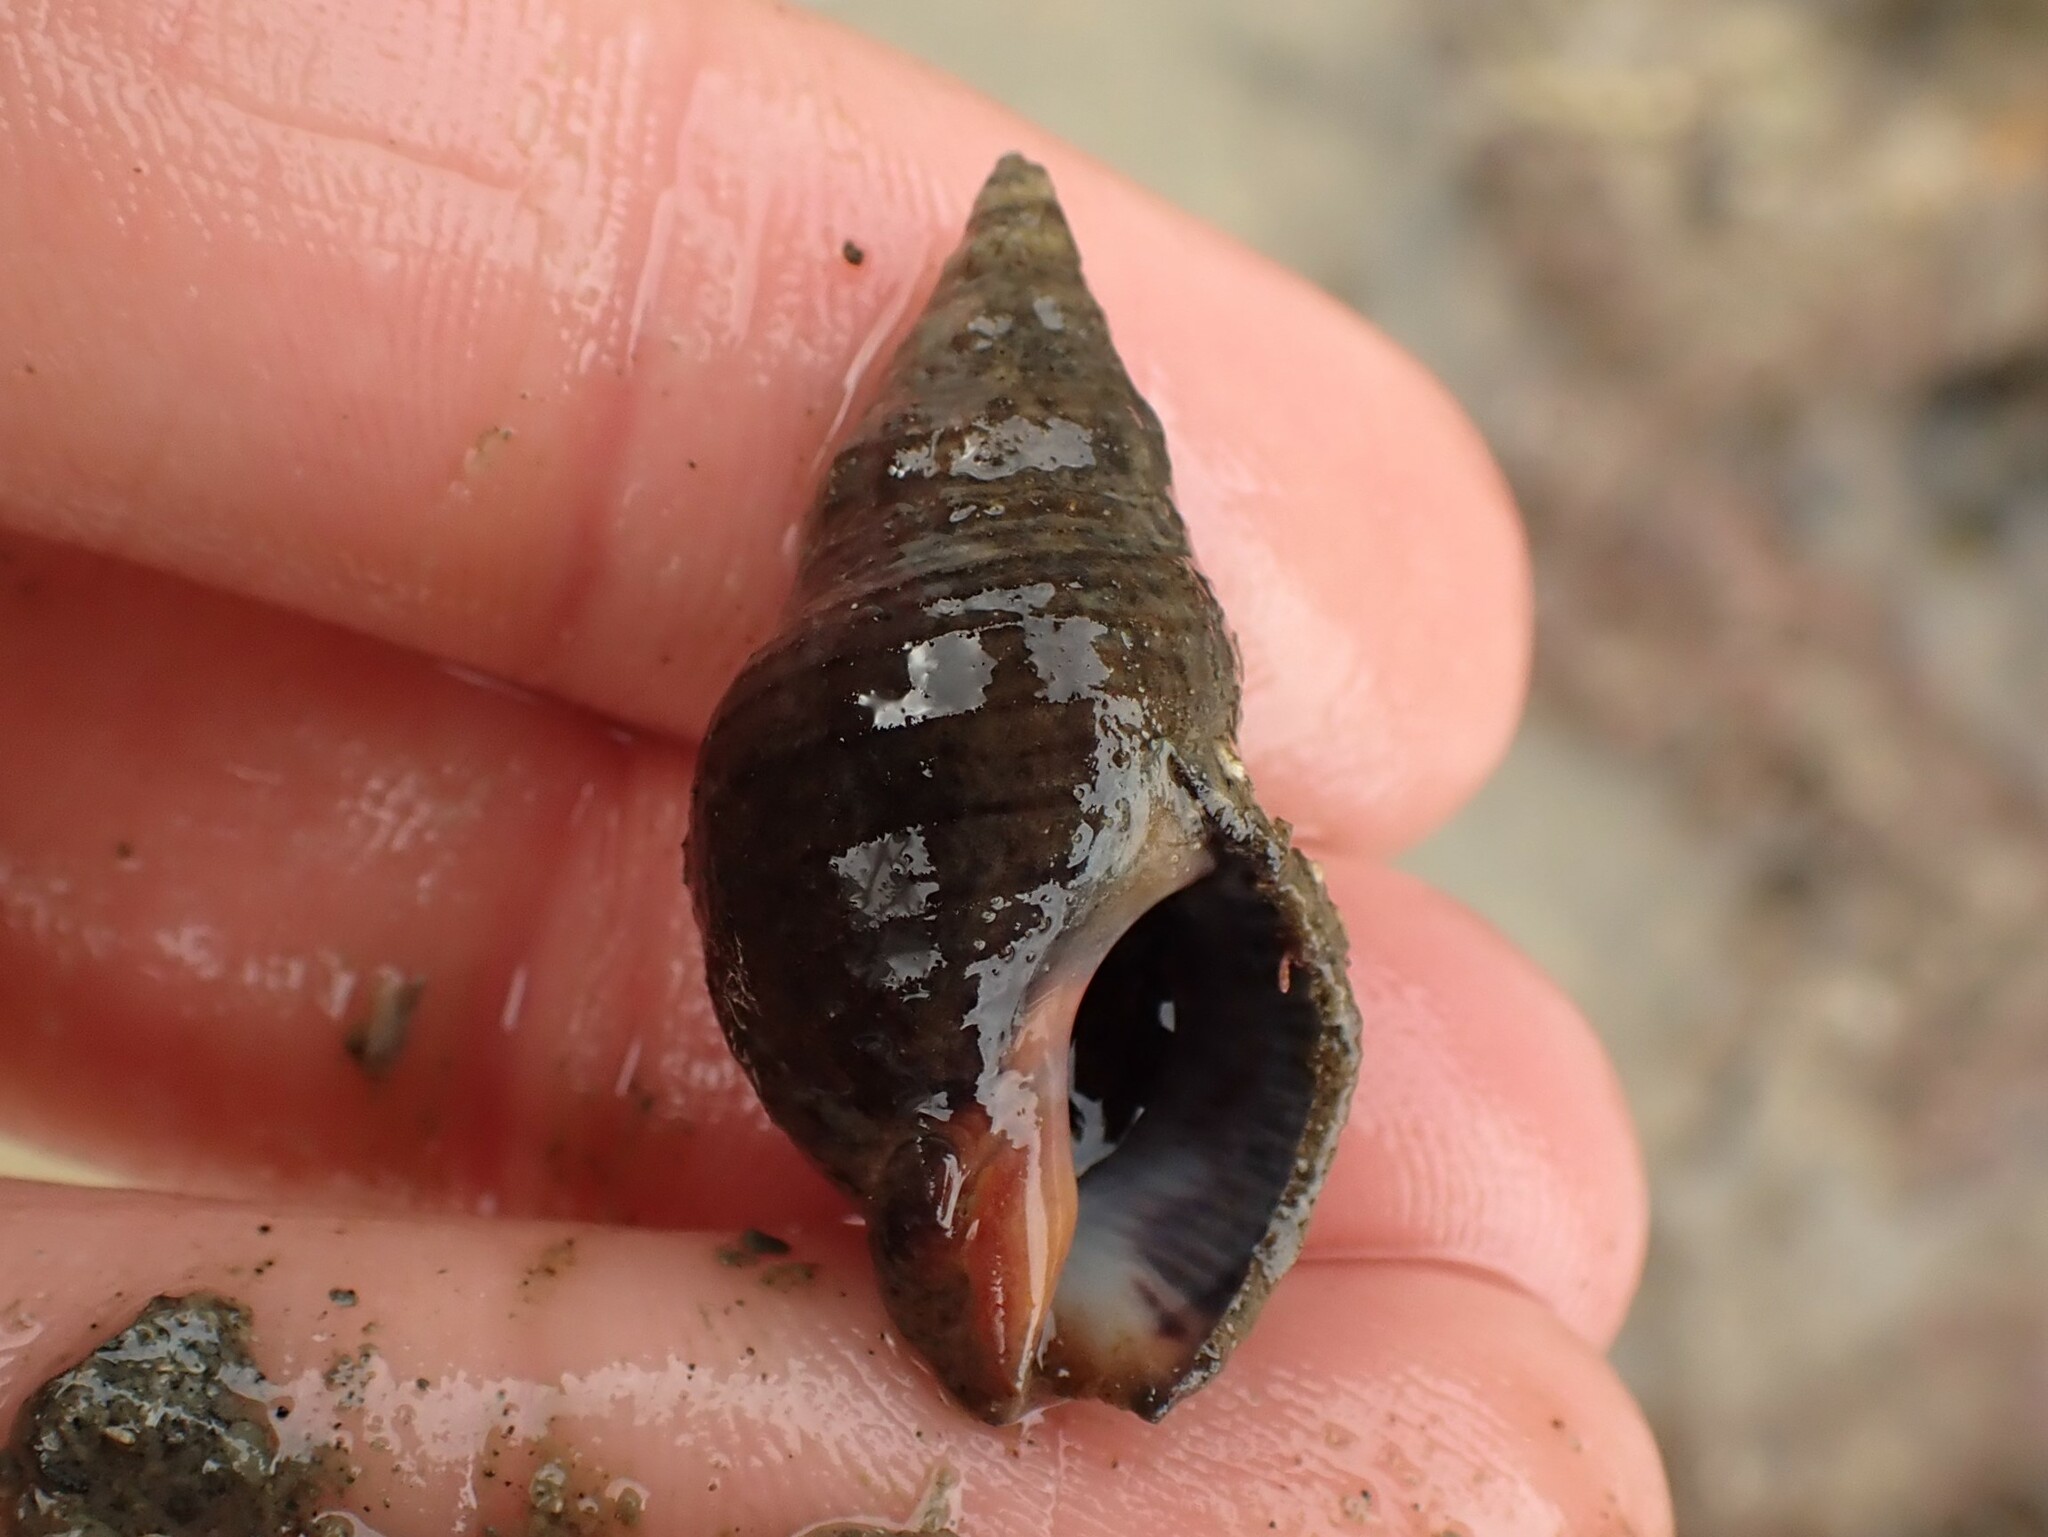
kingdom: Animalia
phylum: Mollusca
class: Gastropoda
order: Neogastropoda
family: Cominellidae
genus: Cominella
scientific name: Cominella virgata
